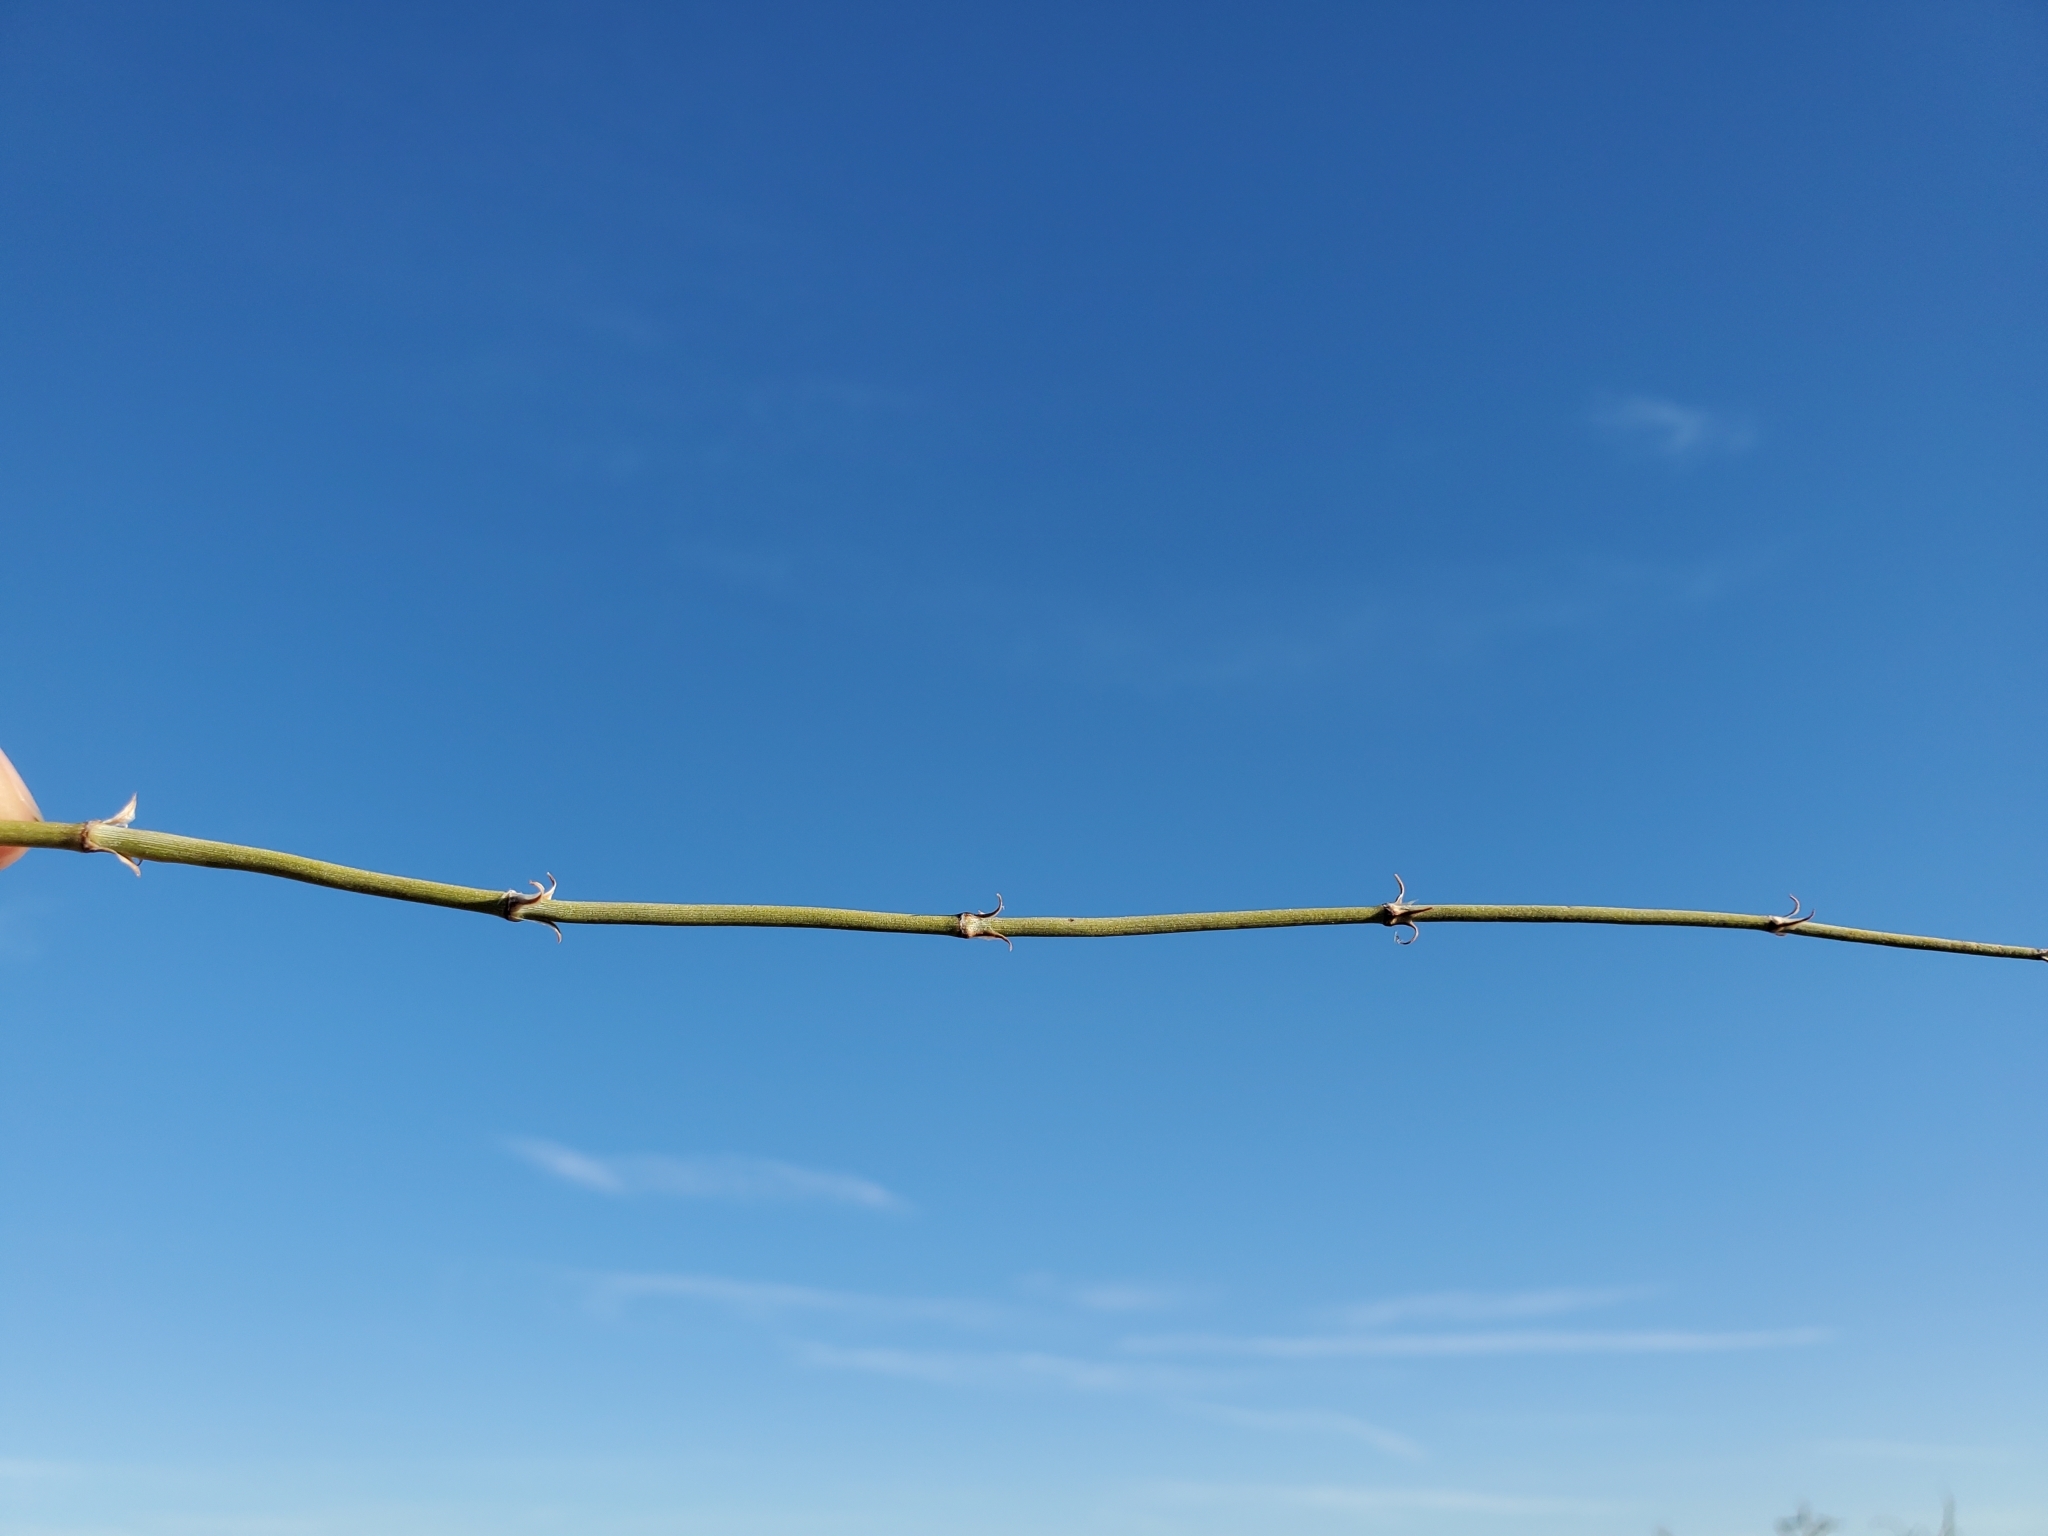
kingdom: Plantae
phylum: Tracheophyta
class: Gnetopsida
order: Ephedrales
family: Ephedraceae
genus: Ephedra
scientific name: Ephedra californica
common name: California ephedra
